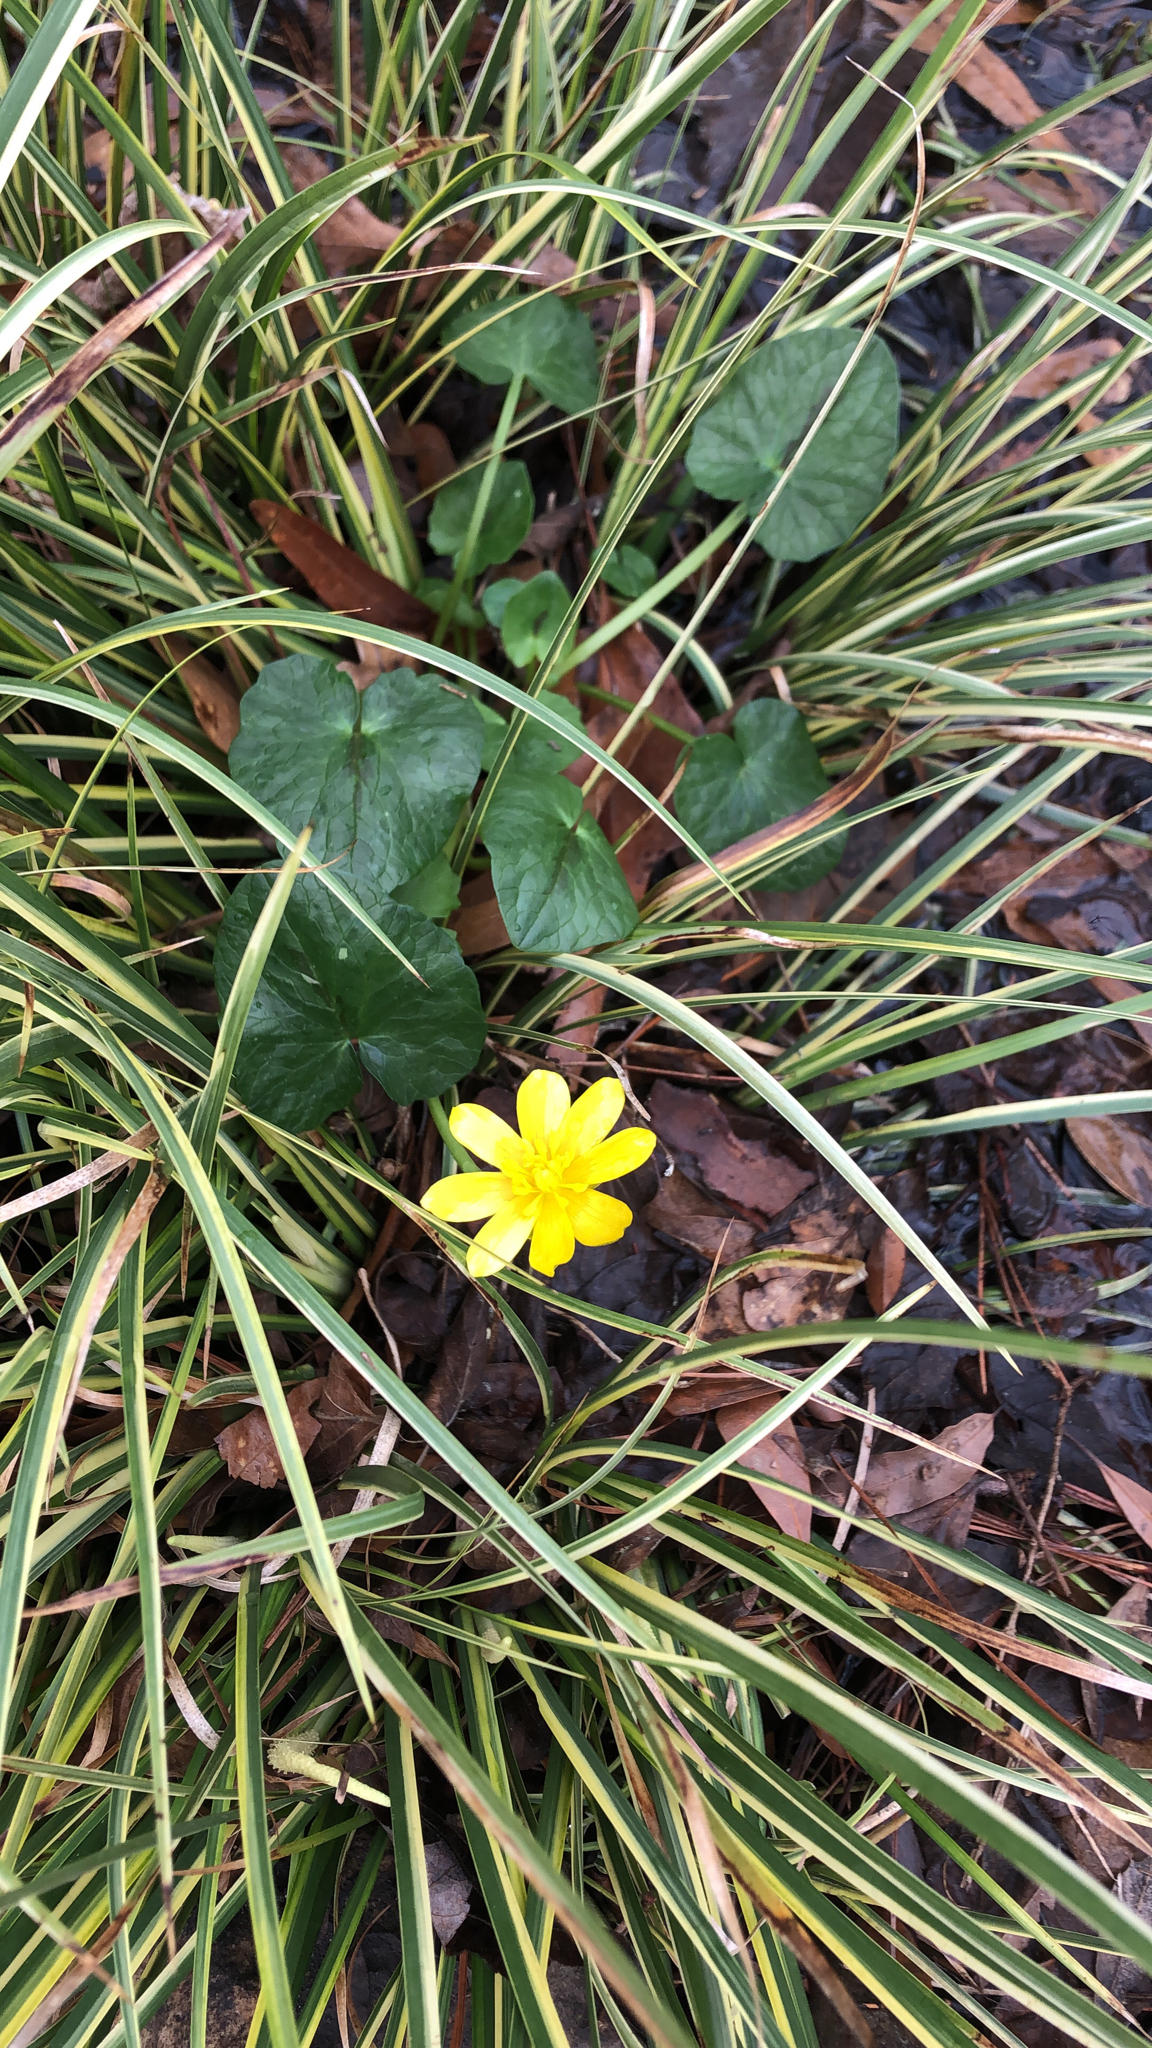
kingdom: Plantae
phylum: Tracheophyta
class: Magnoliopsida
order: Ranunculales
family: Ranunculaceae
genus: Ficaria
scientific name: Ficaria verna
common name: Lesser celandine
